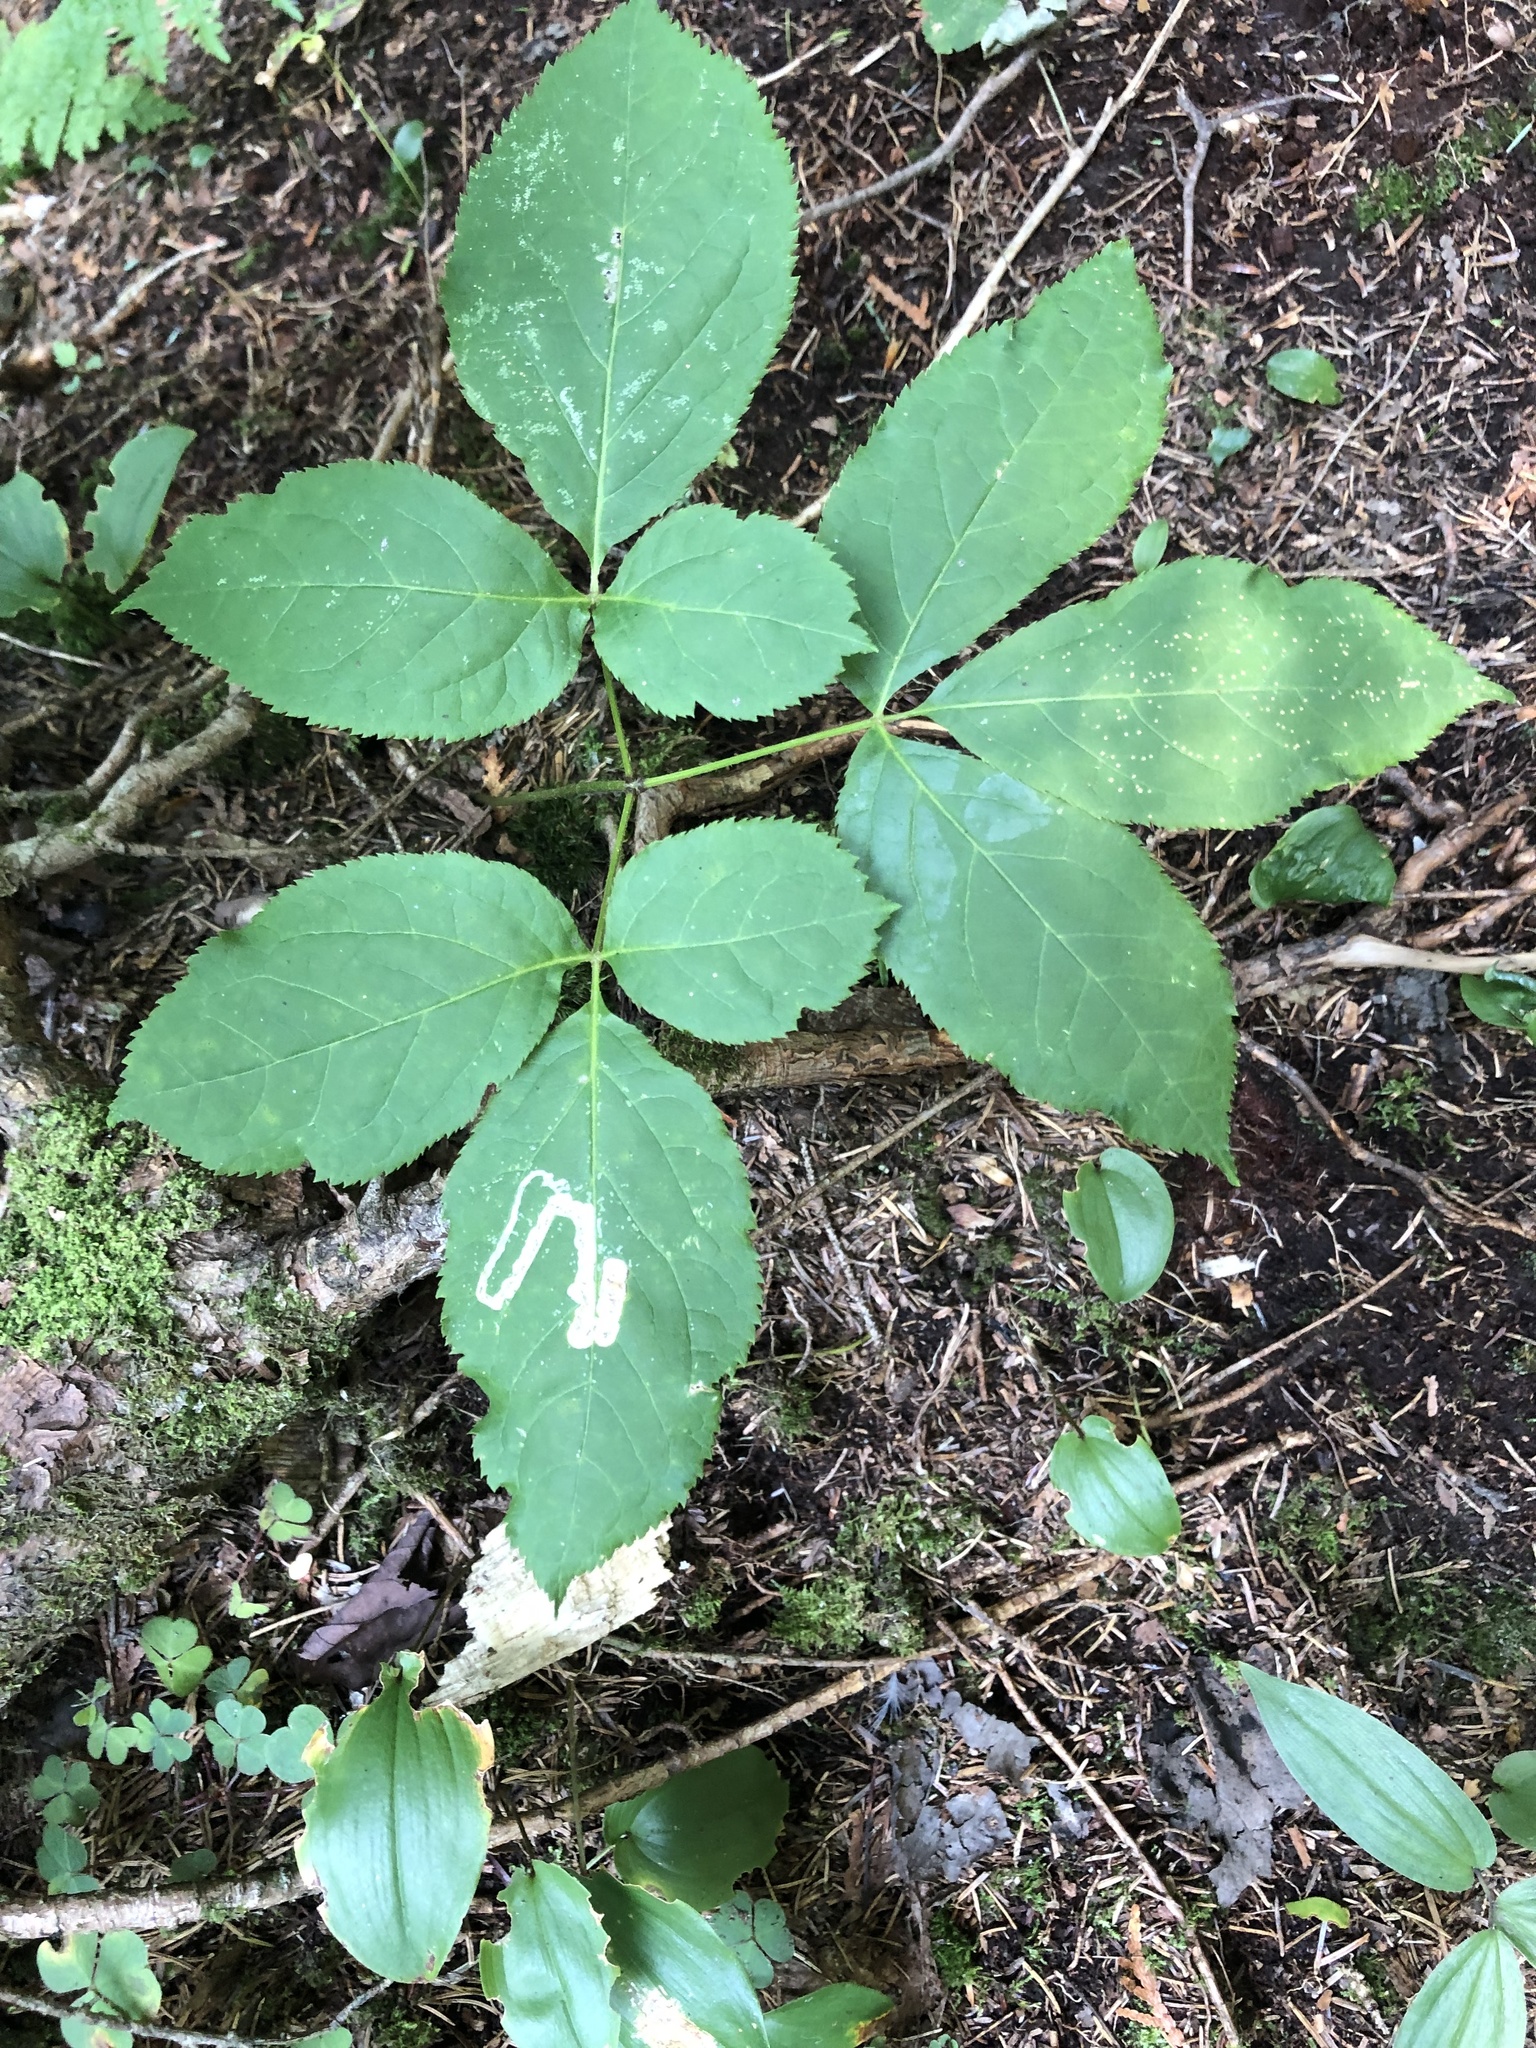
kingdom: Plantae
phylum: Tracheophyta
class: Magnoliopsida
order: Apiales
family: Araliaceae
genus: Aralia
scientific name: Aralia nudicaulis
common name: Wild sarsaparilla
